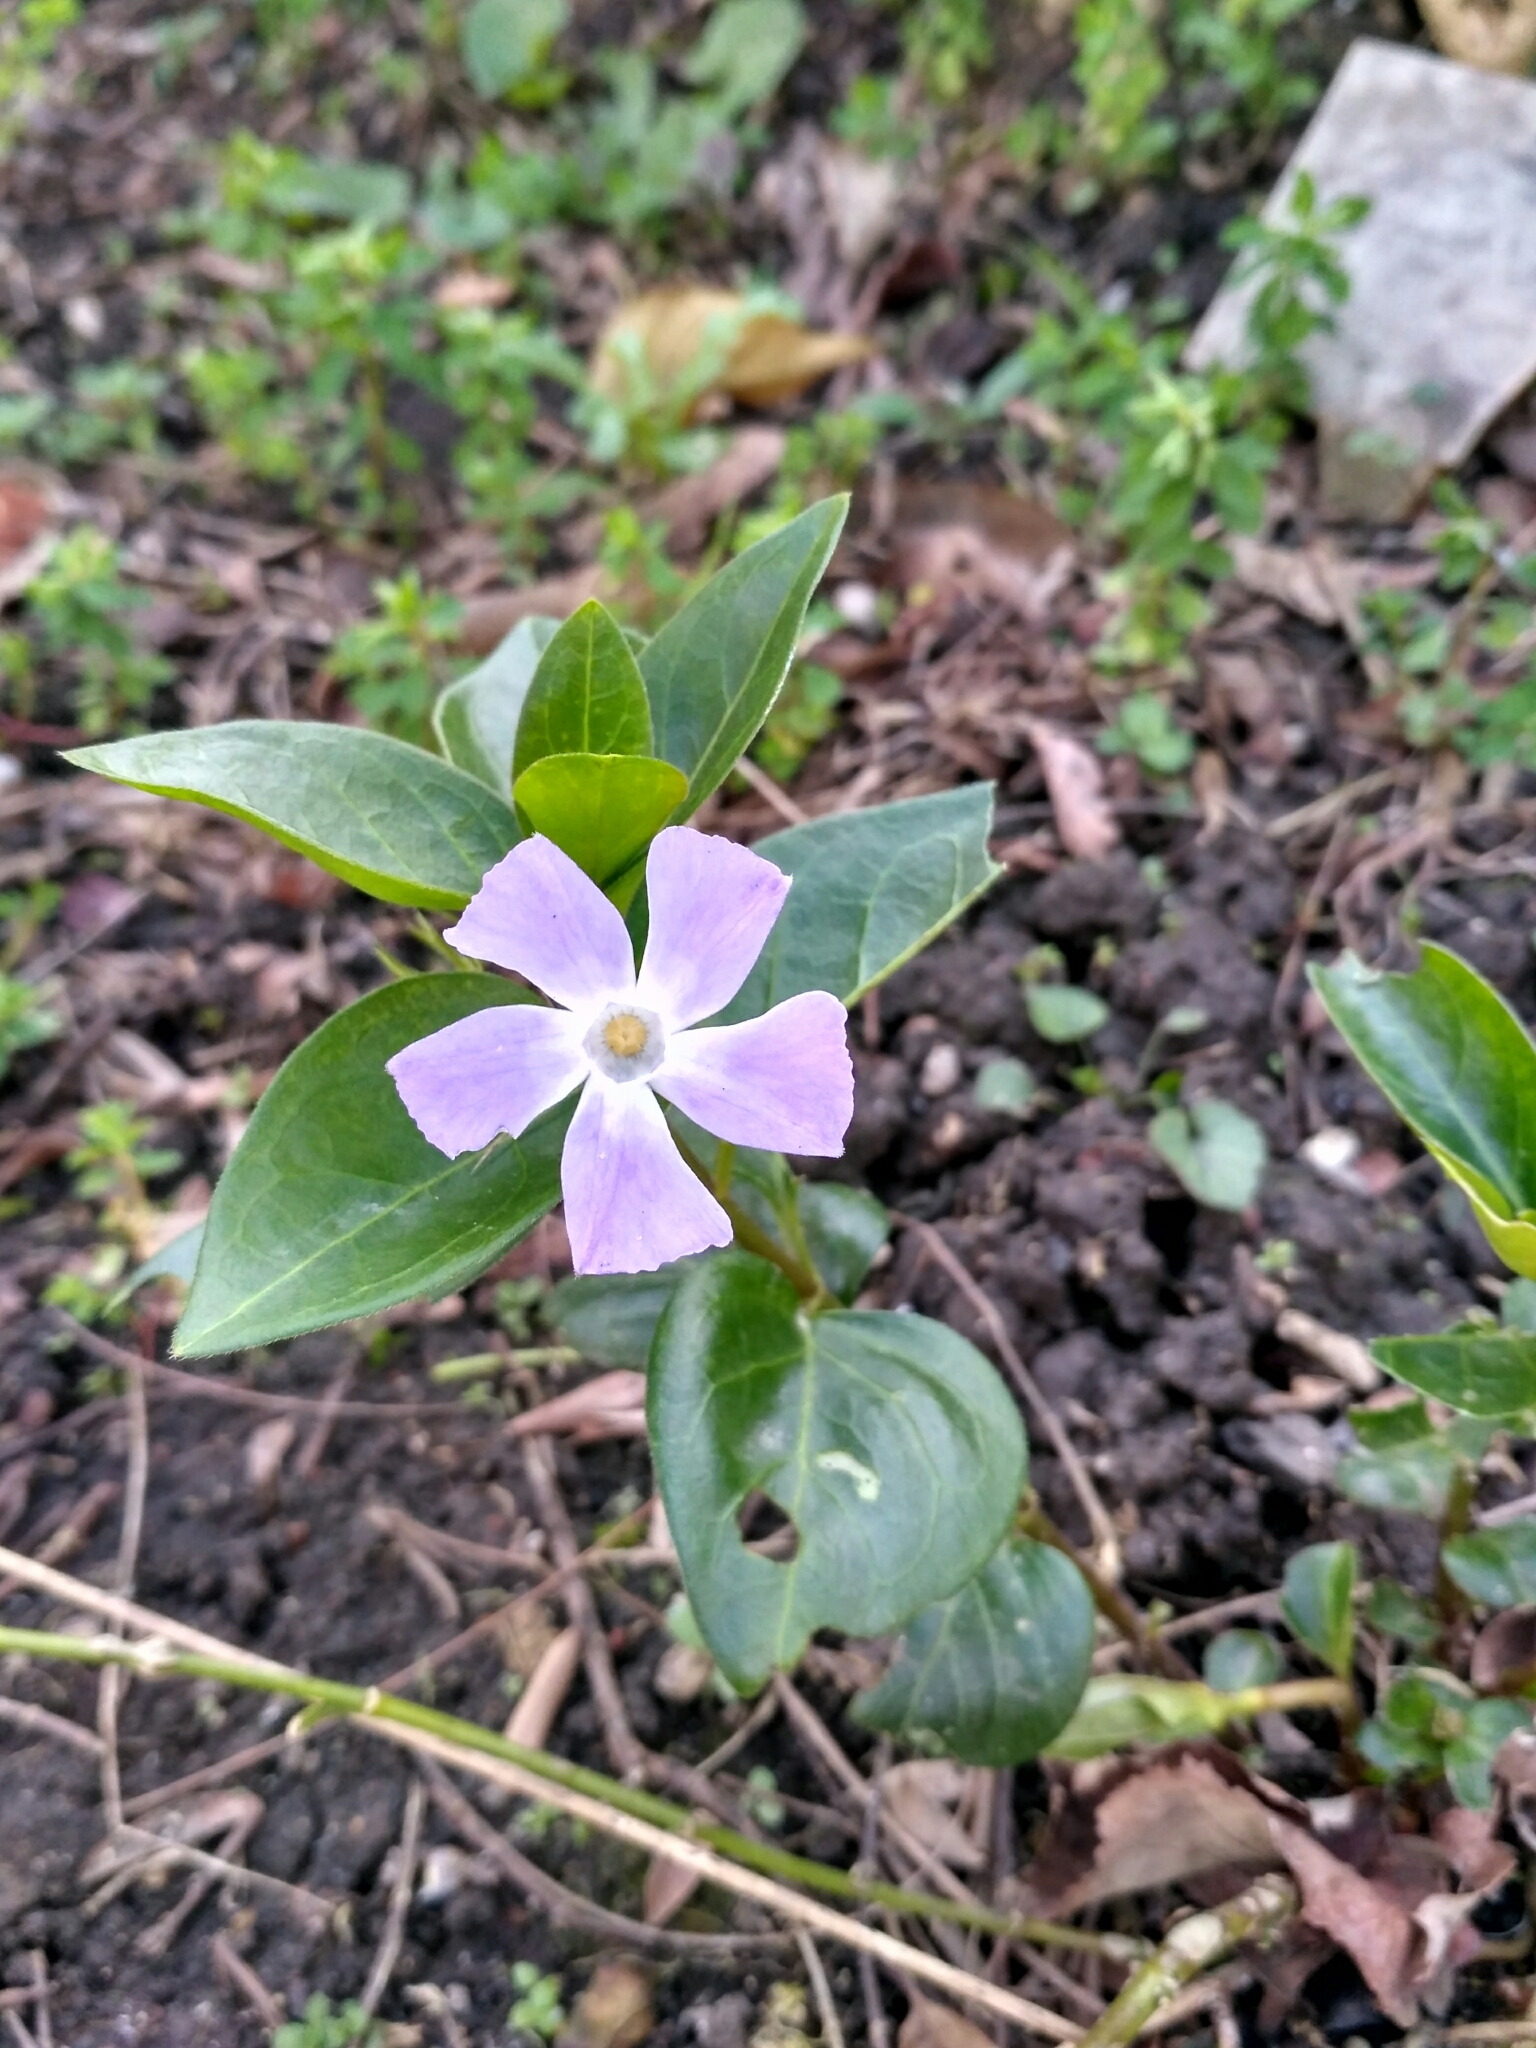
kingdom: Plantae
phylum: Tracheophyta
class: Magnoliopsida
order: Gentianales
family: Apocynaceae
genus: Vinca
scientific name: Vinca major
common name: Greater periwinkle
